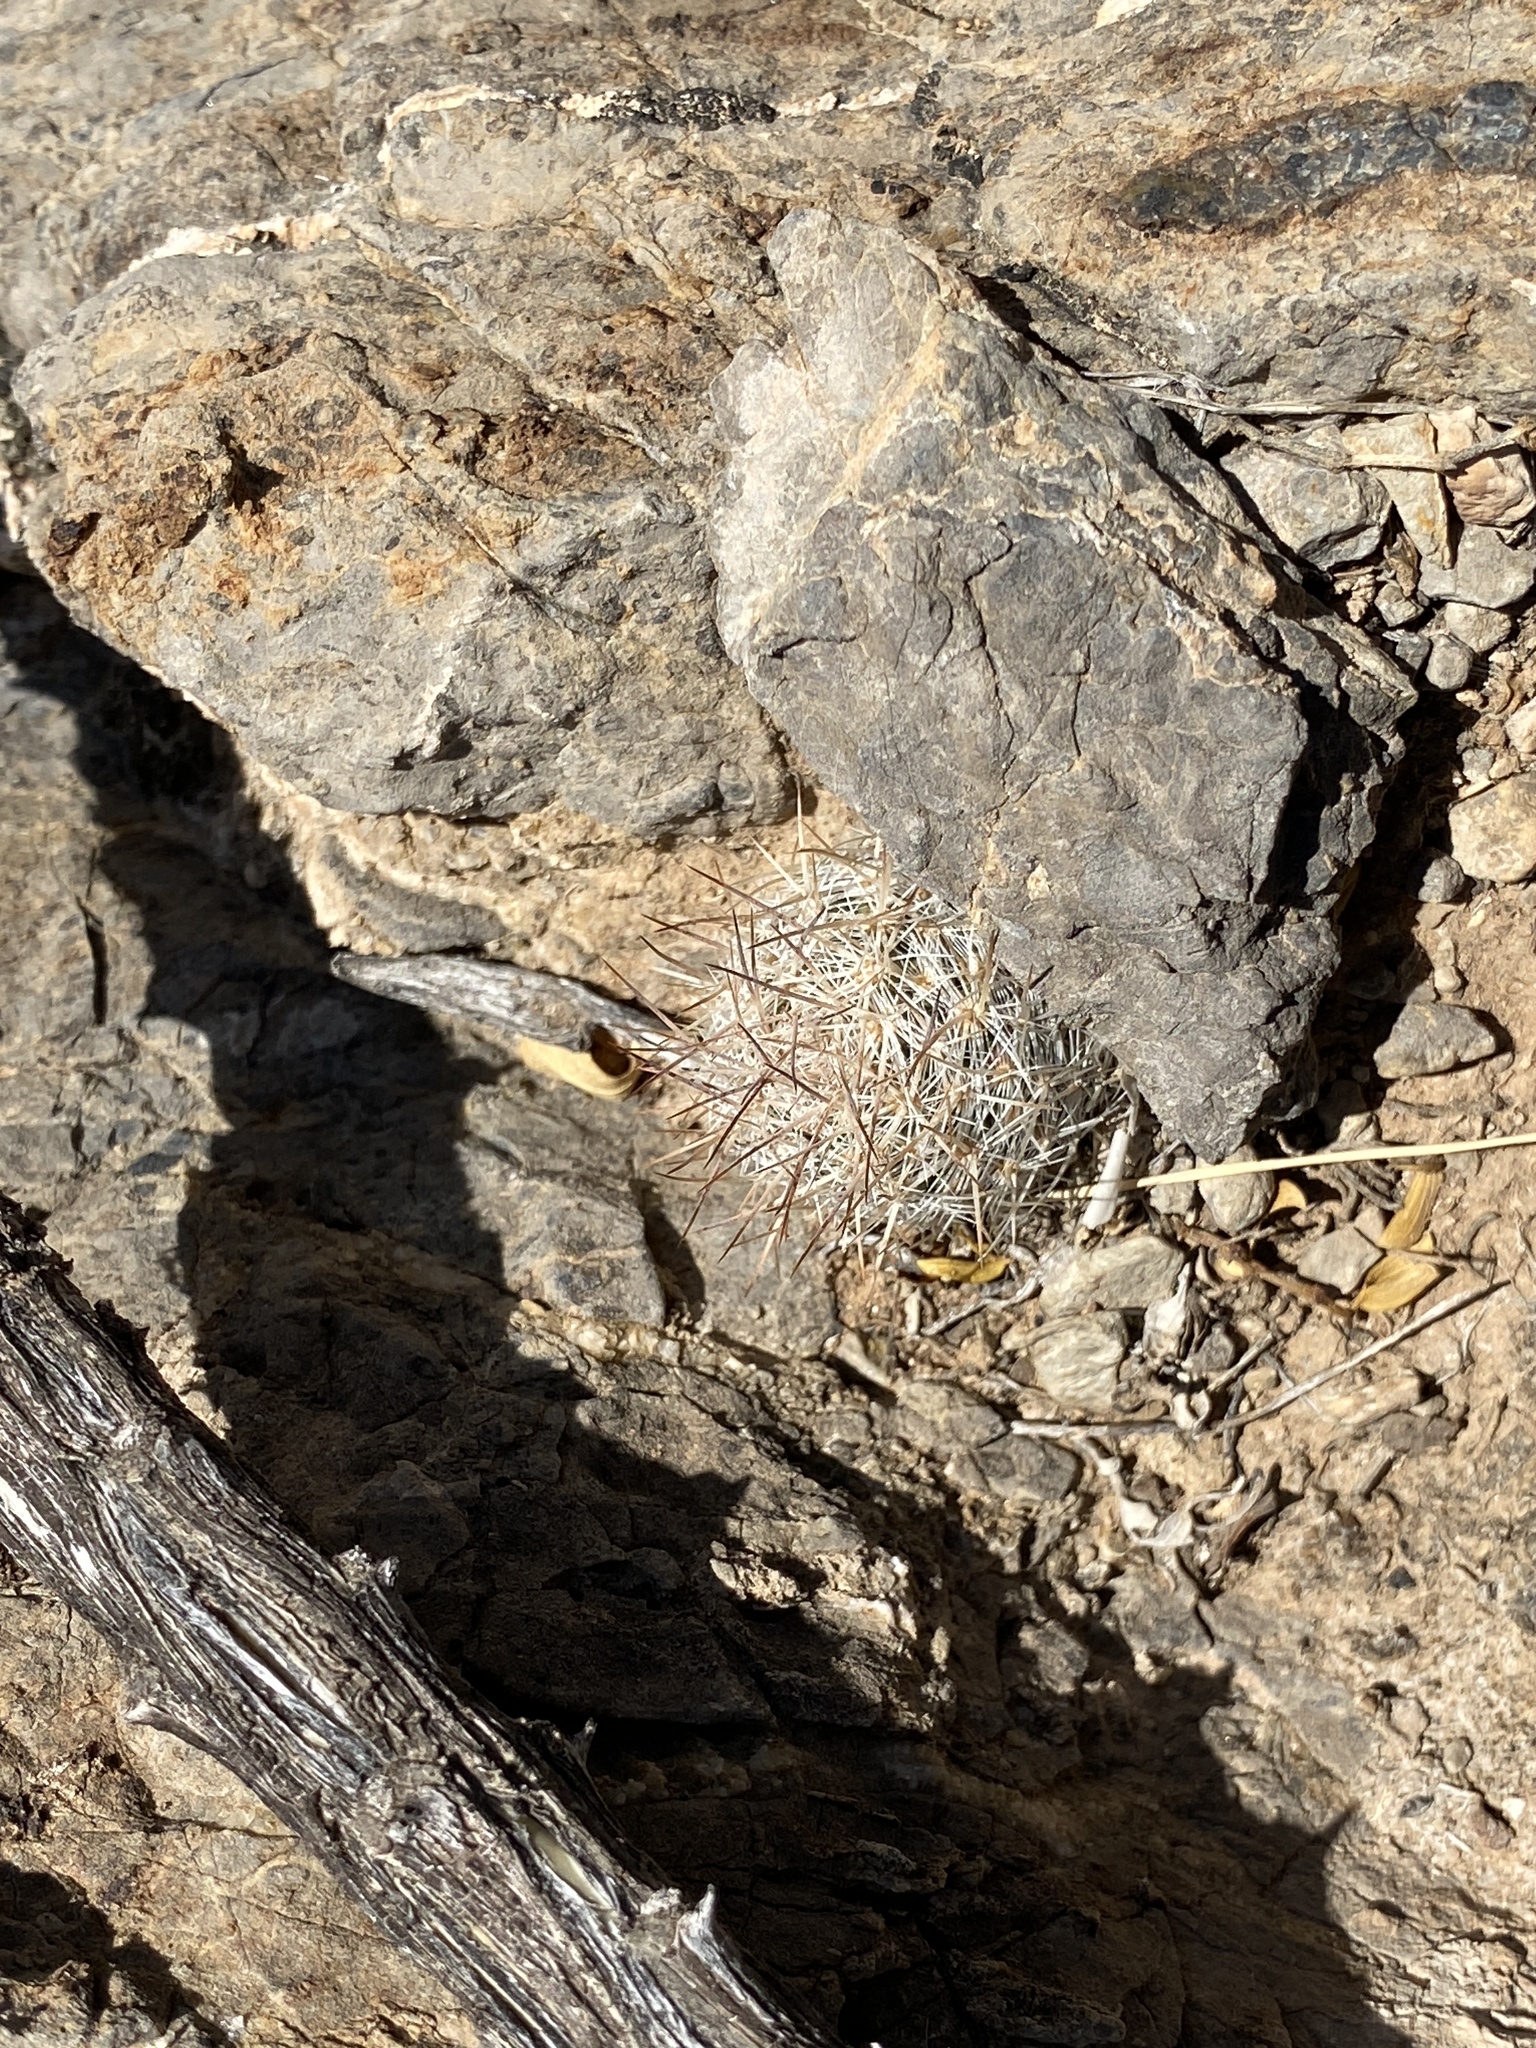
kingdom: Plantae
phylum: Tracheophyta
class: Magnoliopsida
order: Caryophyllales
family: Cactaceae
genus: Pelecyphora
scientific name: Pelecyphora tuberculosa
